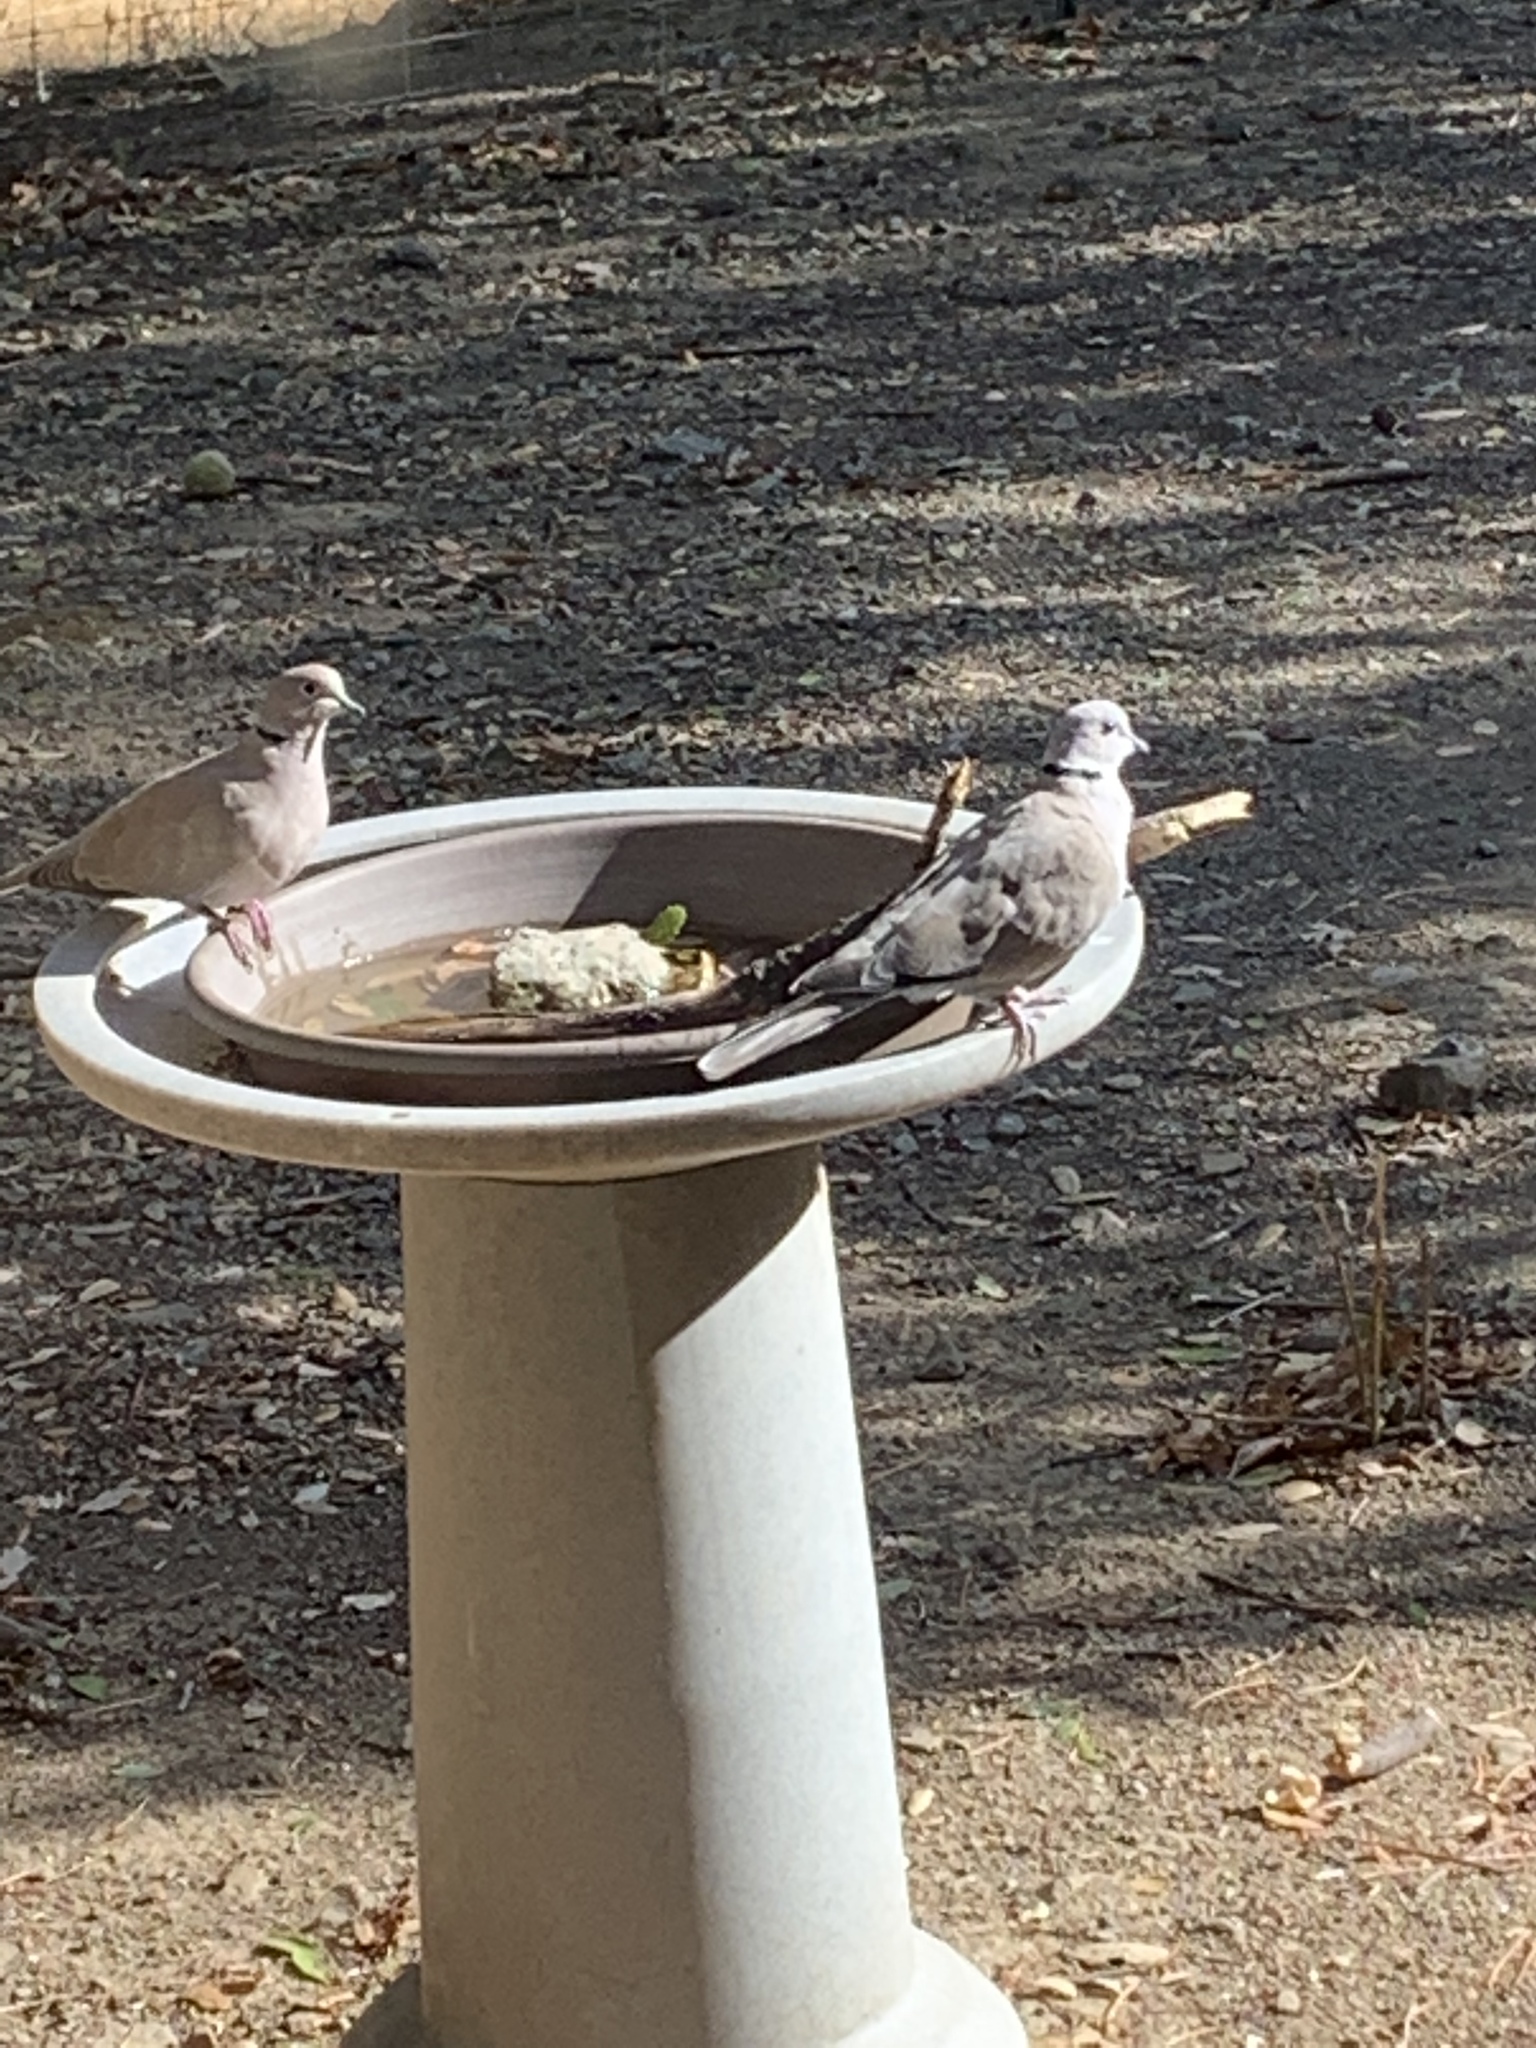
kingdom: Animalia
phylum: Chordata
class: Aves
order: Columbiformes
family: Columbidae
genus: Streptopelia
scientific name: Streptopelia decaocto
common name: Eurasian collared dove
